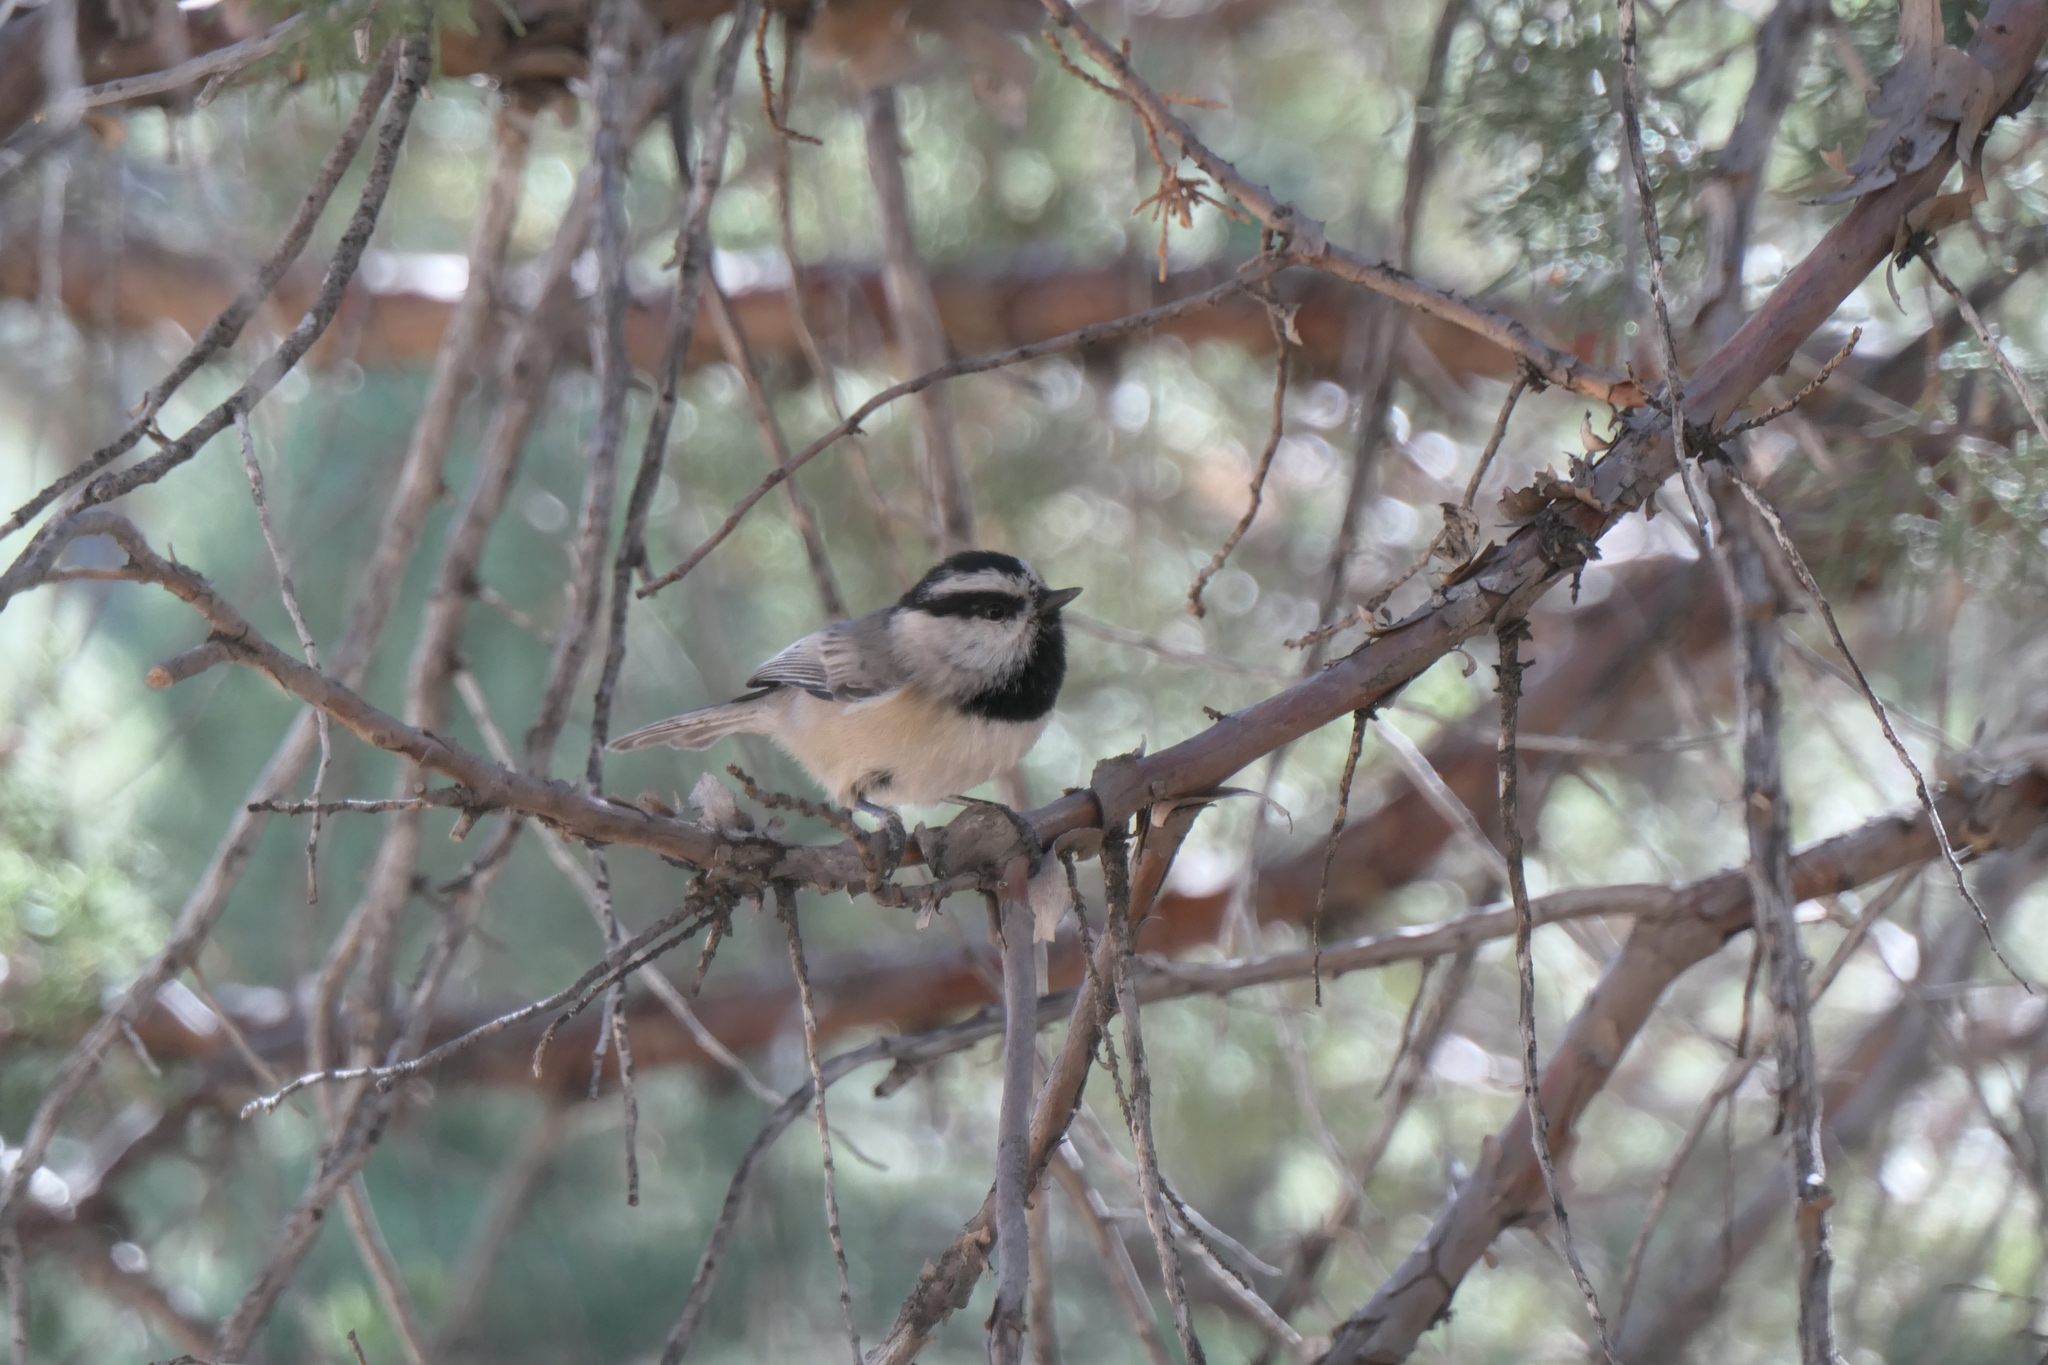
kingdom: Animalia
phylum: Chordata
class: Aves
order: Passeriformes
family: Paridae
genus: Poecile
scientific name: Poecile gambeli
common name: Mountain chickadee
